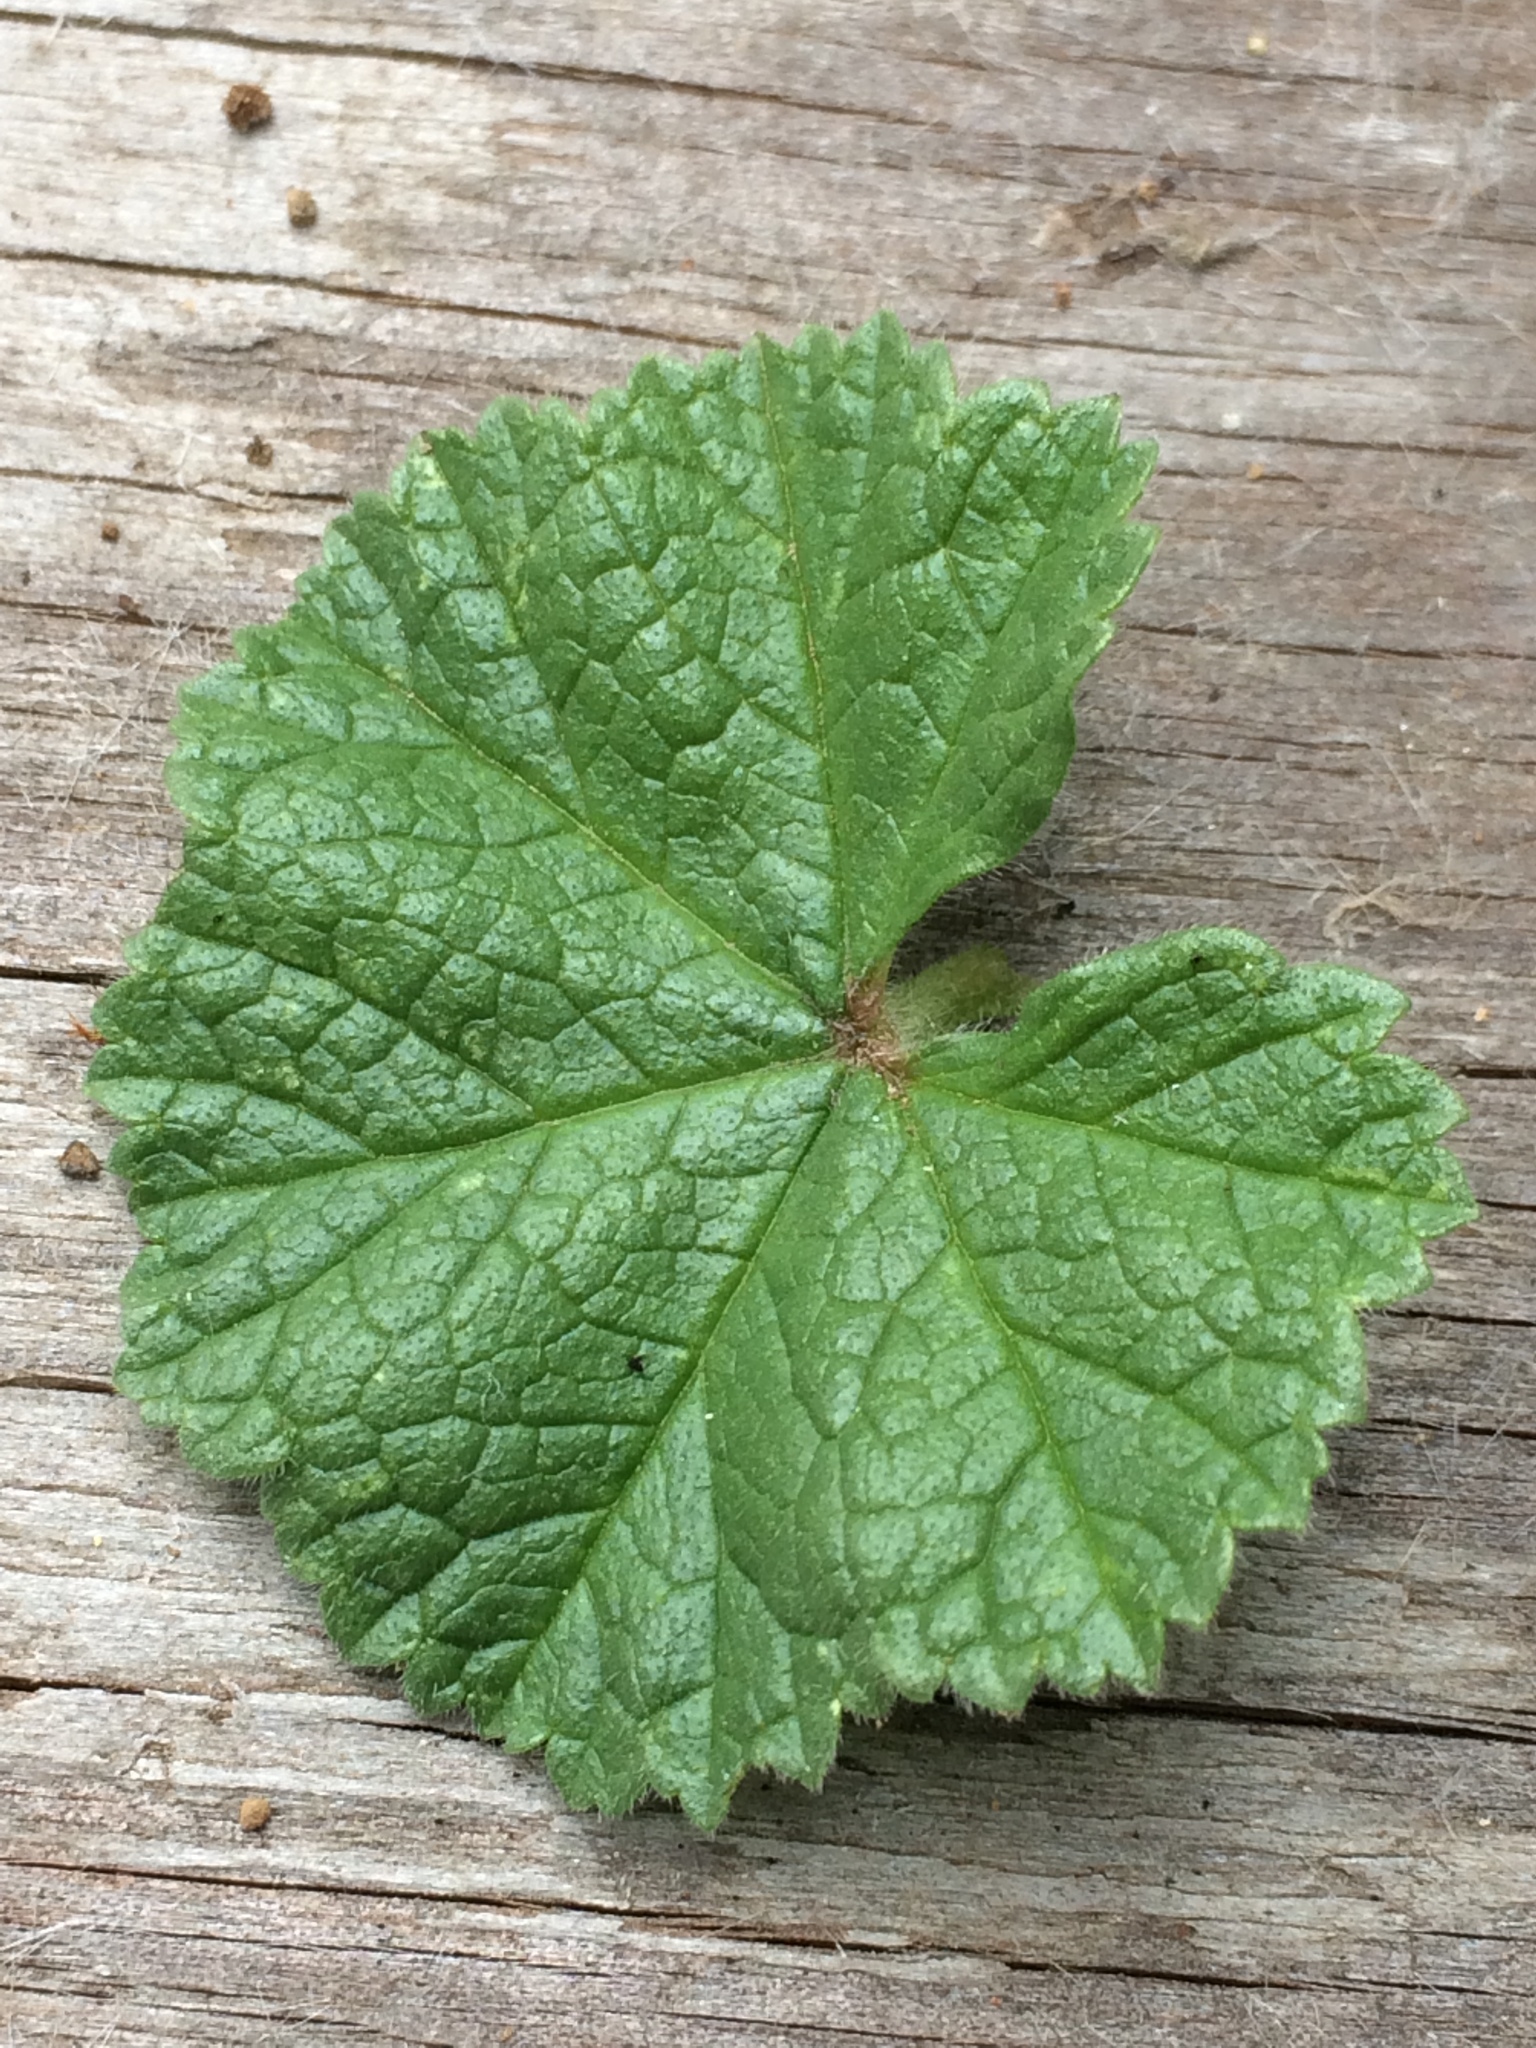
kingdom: Plantae
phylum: Tracheophyta
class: Magnoliopsida
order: Malvales
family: Malvaceae
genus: Malva
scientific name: Malva neglecta
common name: Common mallow
